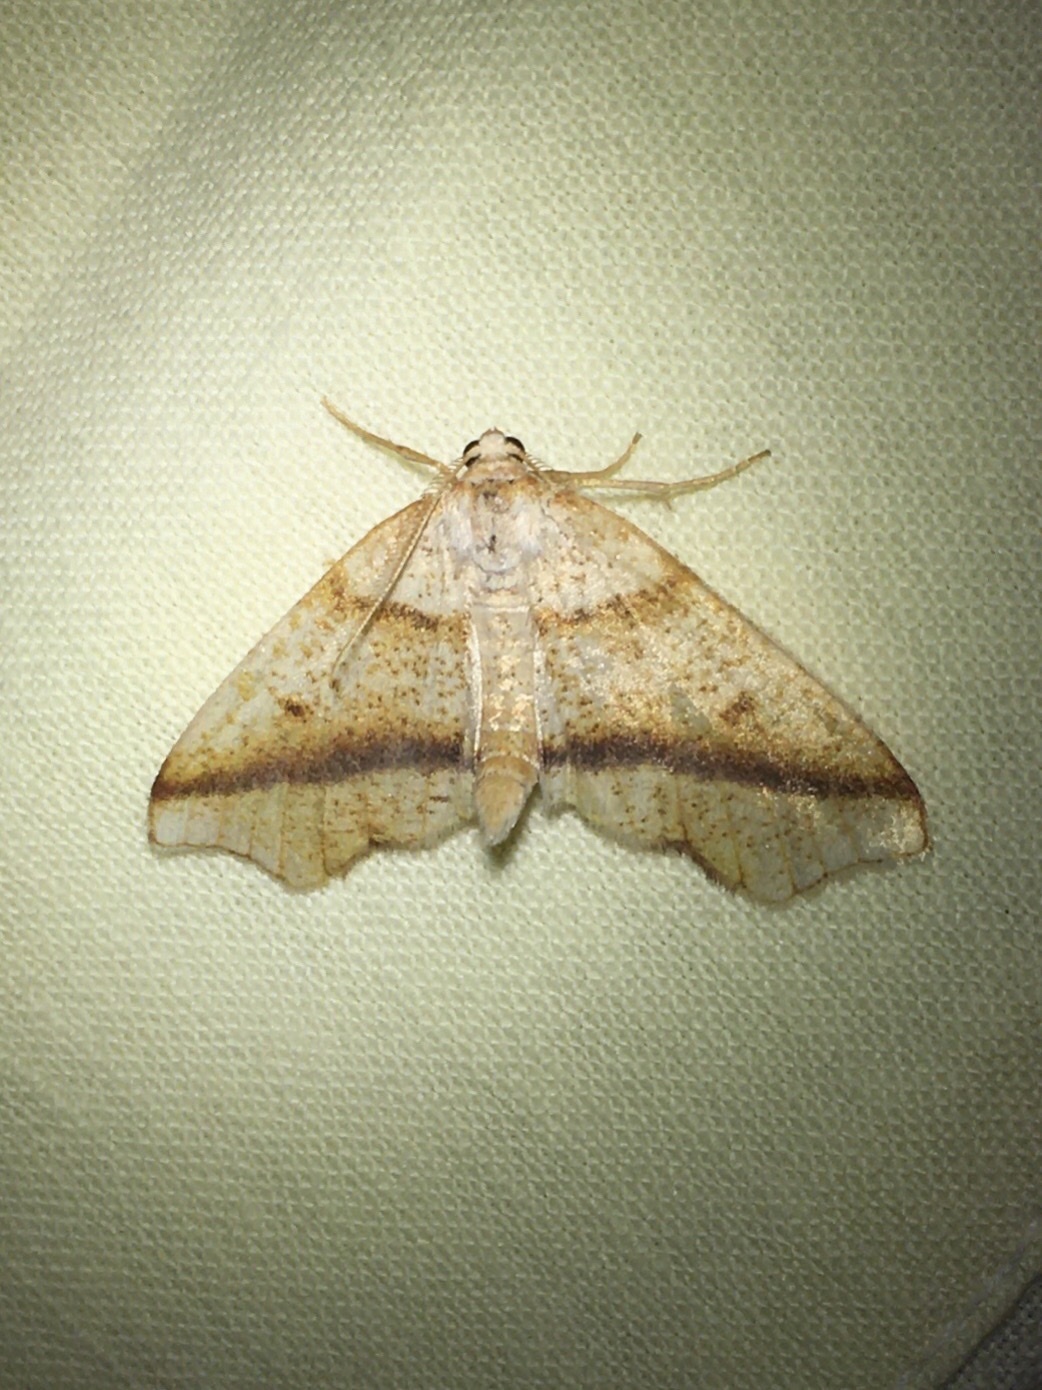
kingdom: Animalia
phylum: Arthropoda
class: Insecta
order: Lepidoptera
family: Geometridae
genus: Plagodis
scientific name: Plagodis alcoolaria
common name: Hollow-spotted plagodis
